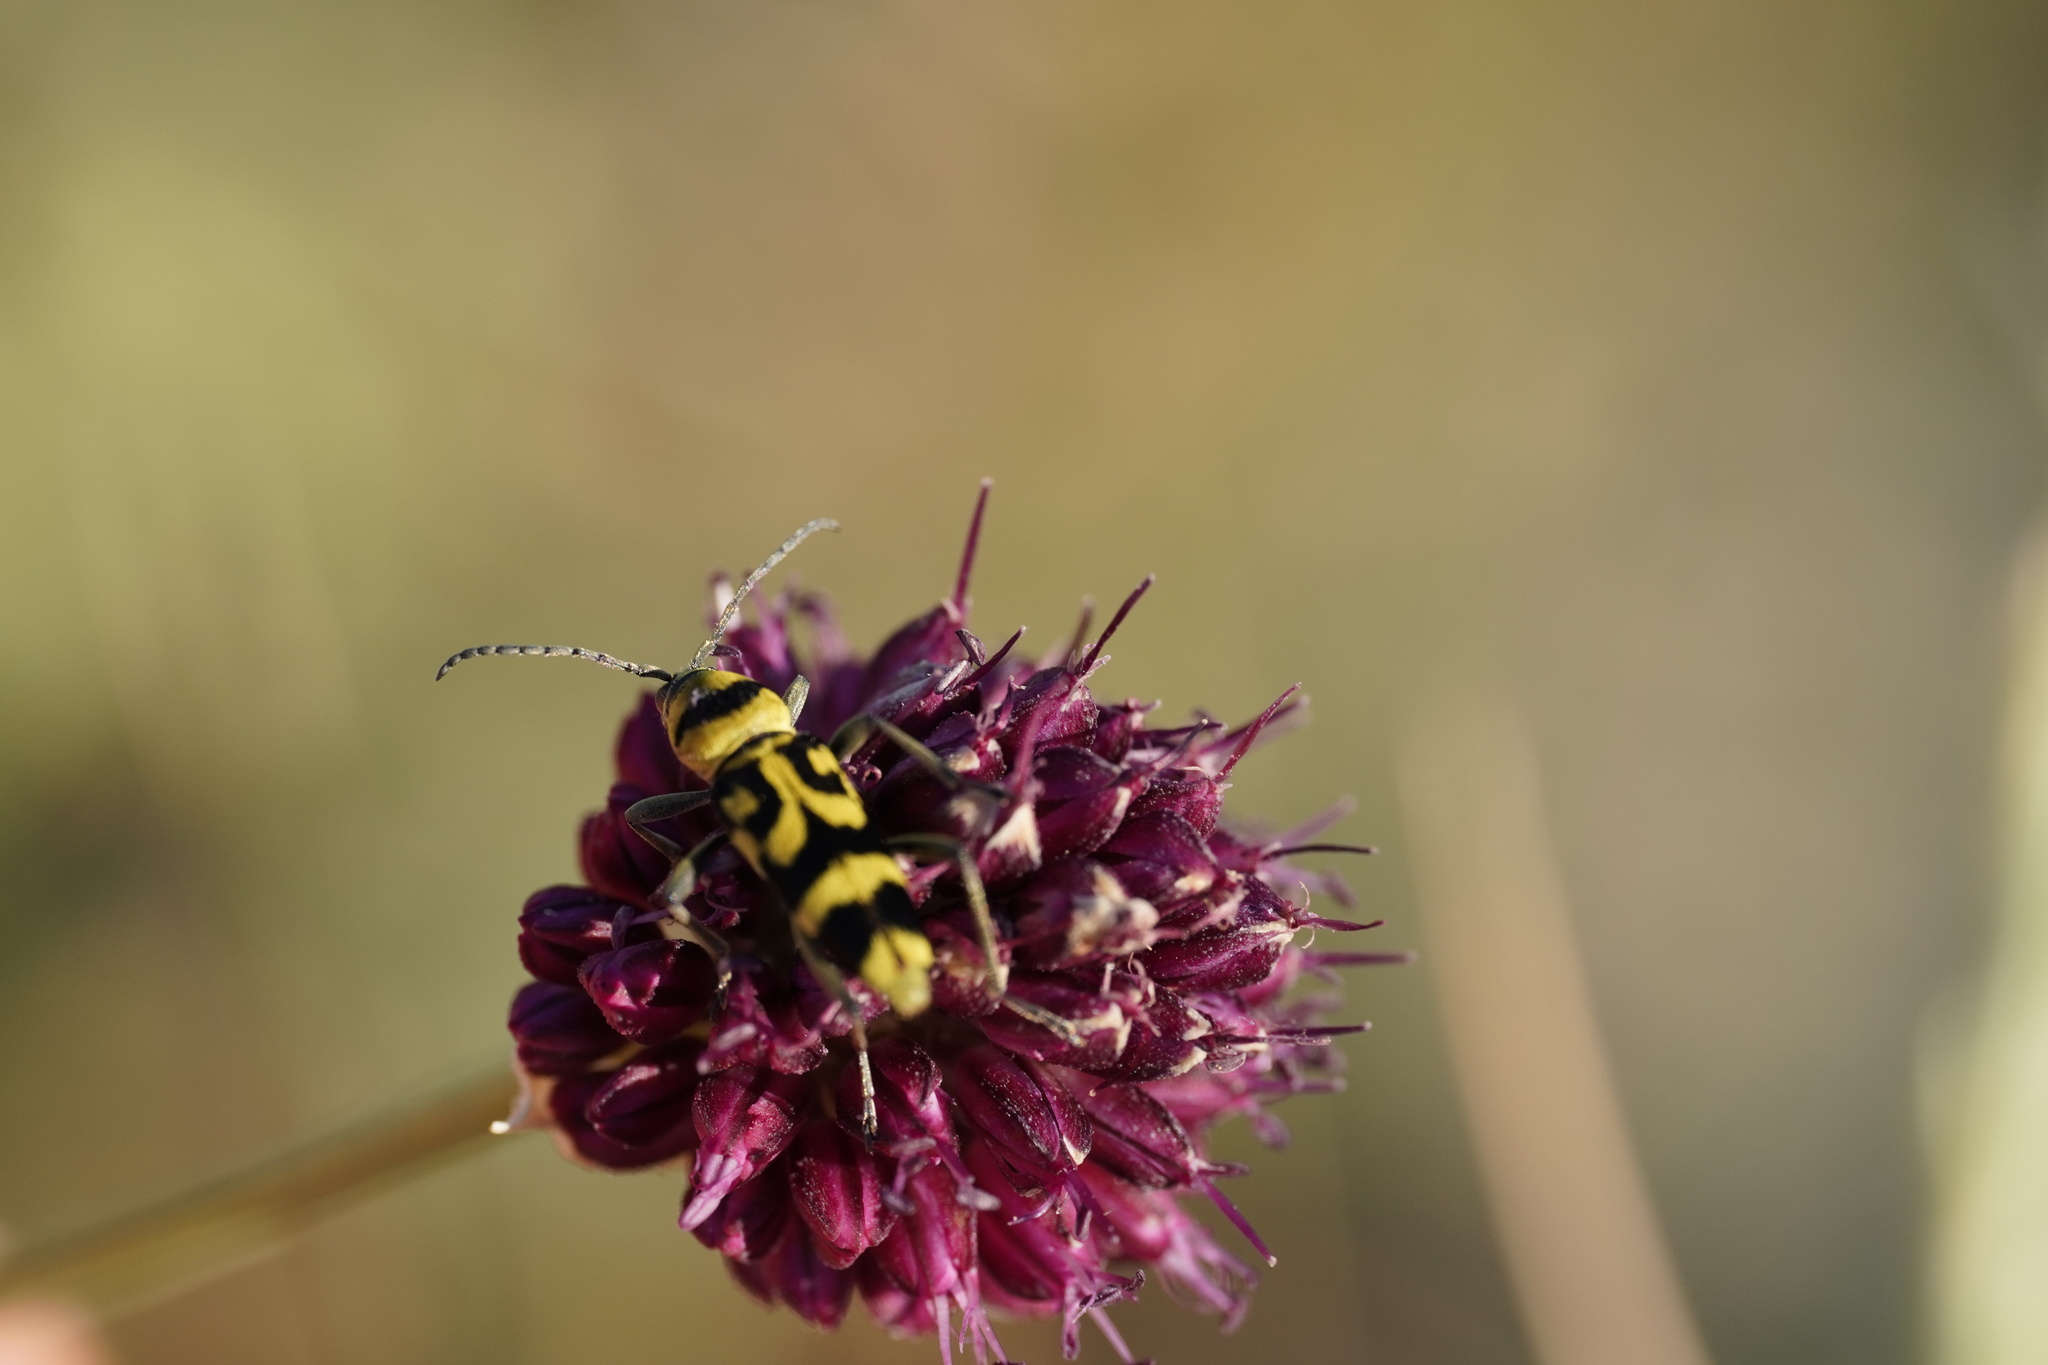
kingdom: Animalia
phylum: Arthropoda
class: Insecta
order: Coleoptera
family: Cerambycidae
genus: Chlorophorus
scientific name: Chlorophorus varius
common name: Grape wood borer
